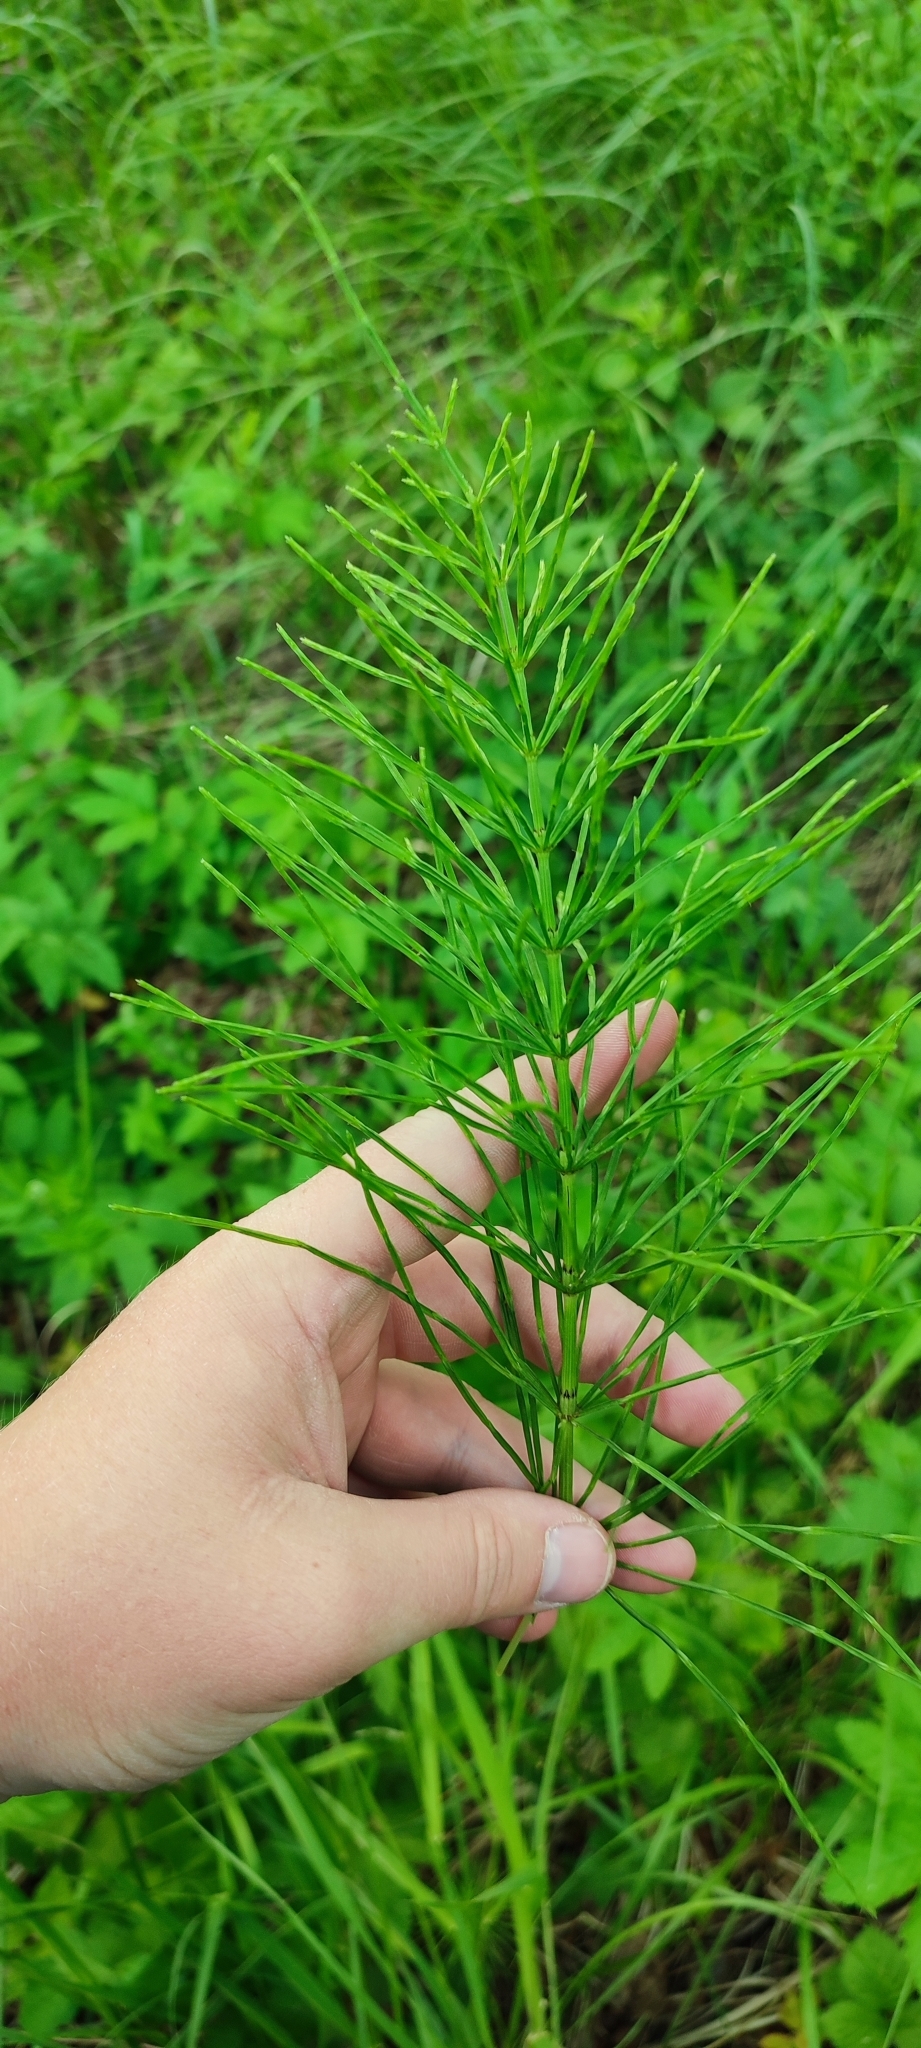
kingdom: Plantae
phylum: Tracheophyta
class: Polypodiopsida
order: Equisetales
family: Equisetaceae
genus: Equisetum
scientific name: Equisetum arvense
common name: Field horsetail
